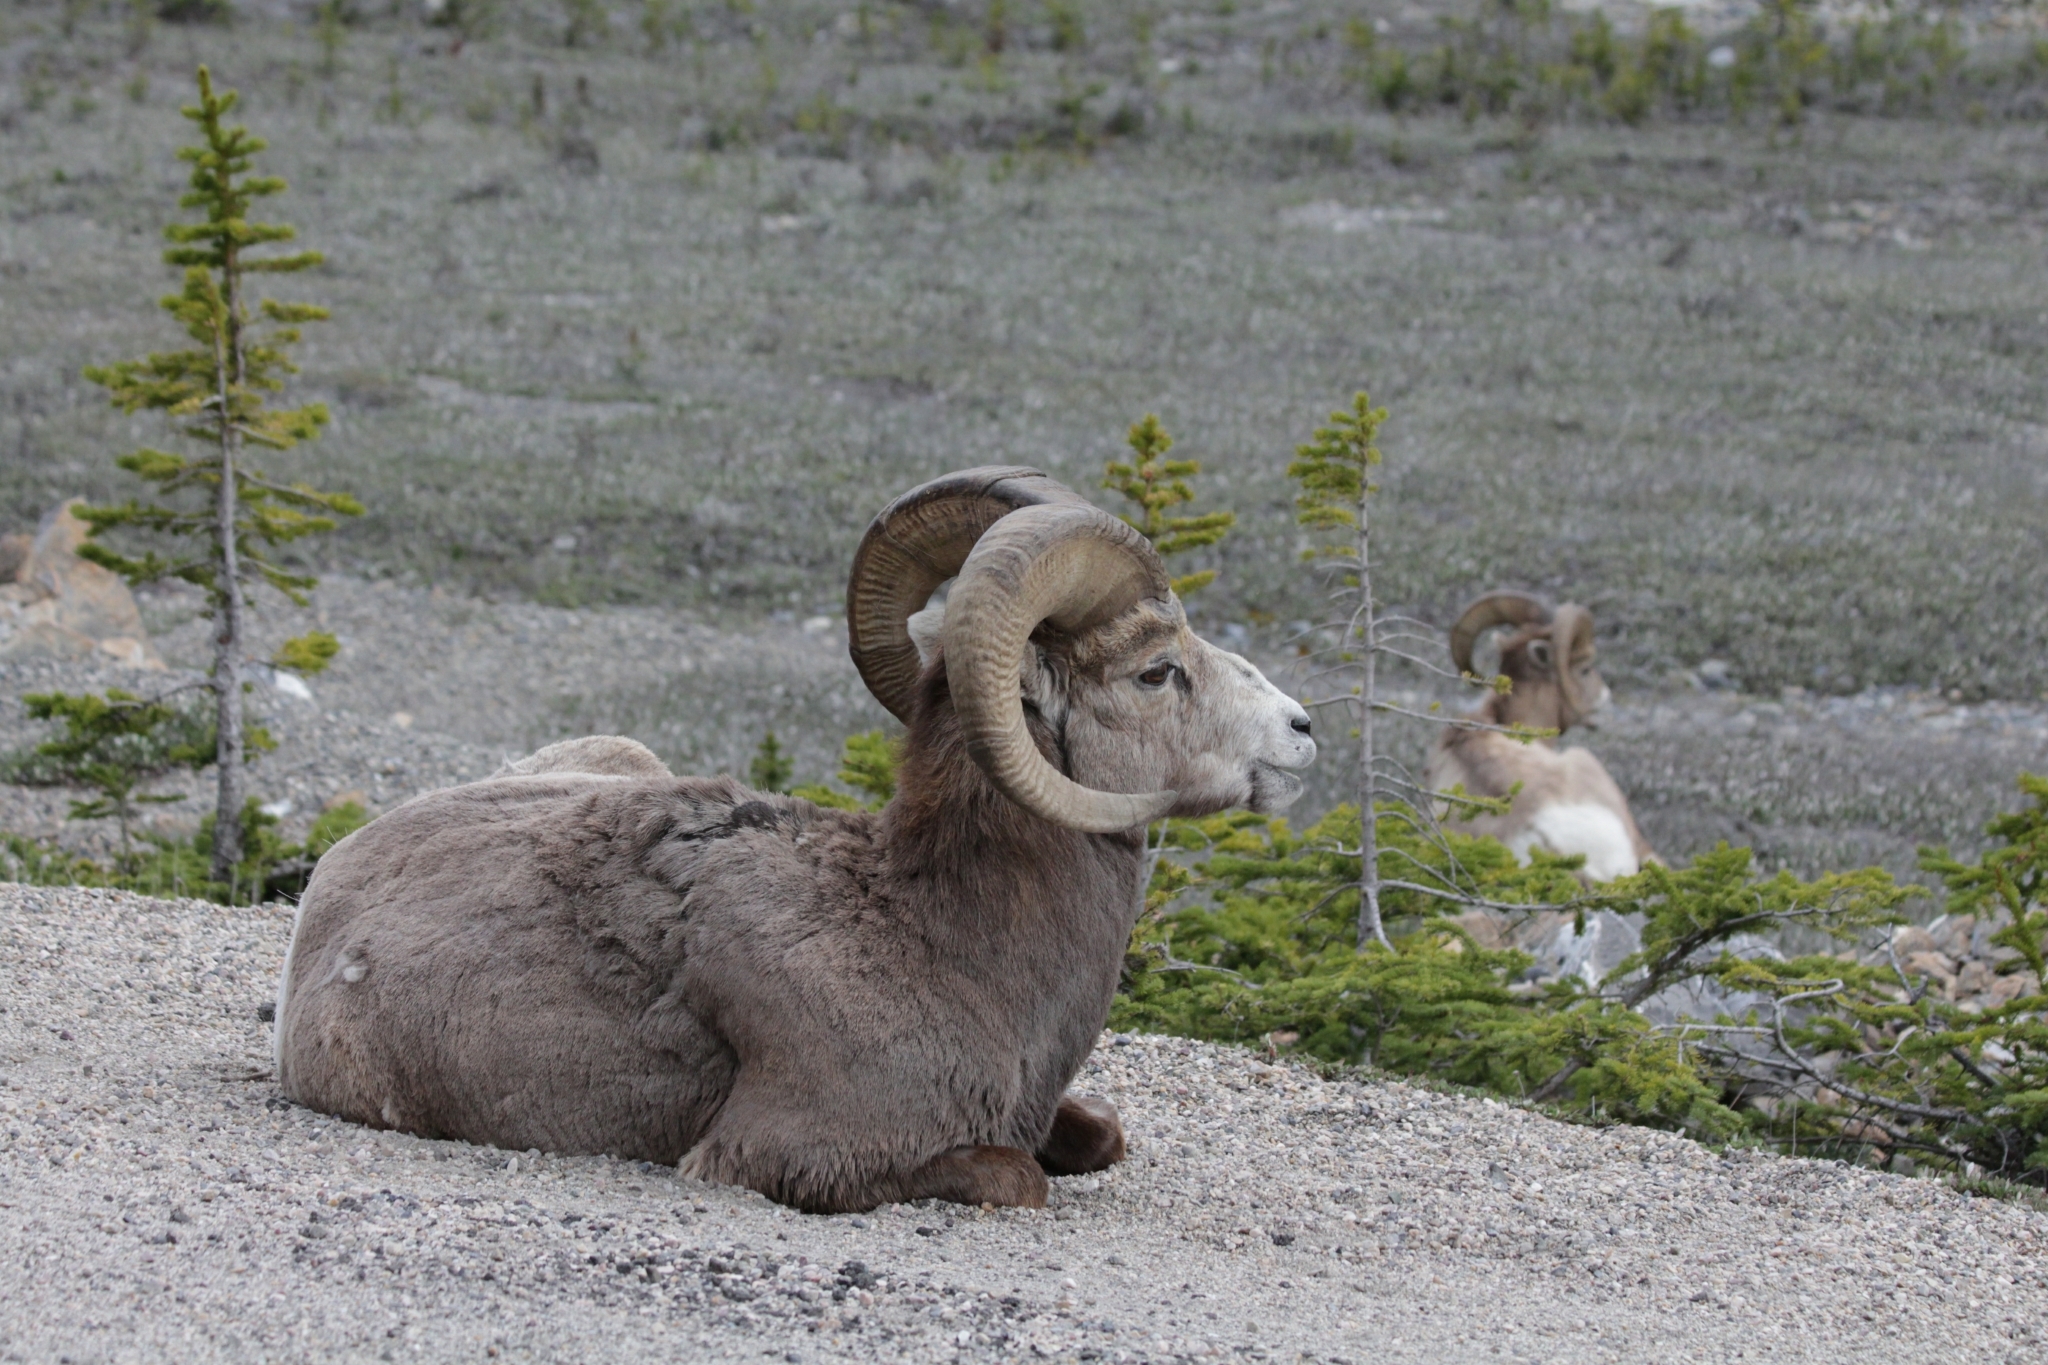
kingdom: Animalia
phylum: Chordata
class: Mammalia
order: Artiodactyla
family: Bovidae
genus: Ovis
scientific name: Ovis canadensis
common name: Bighorn sheep
